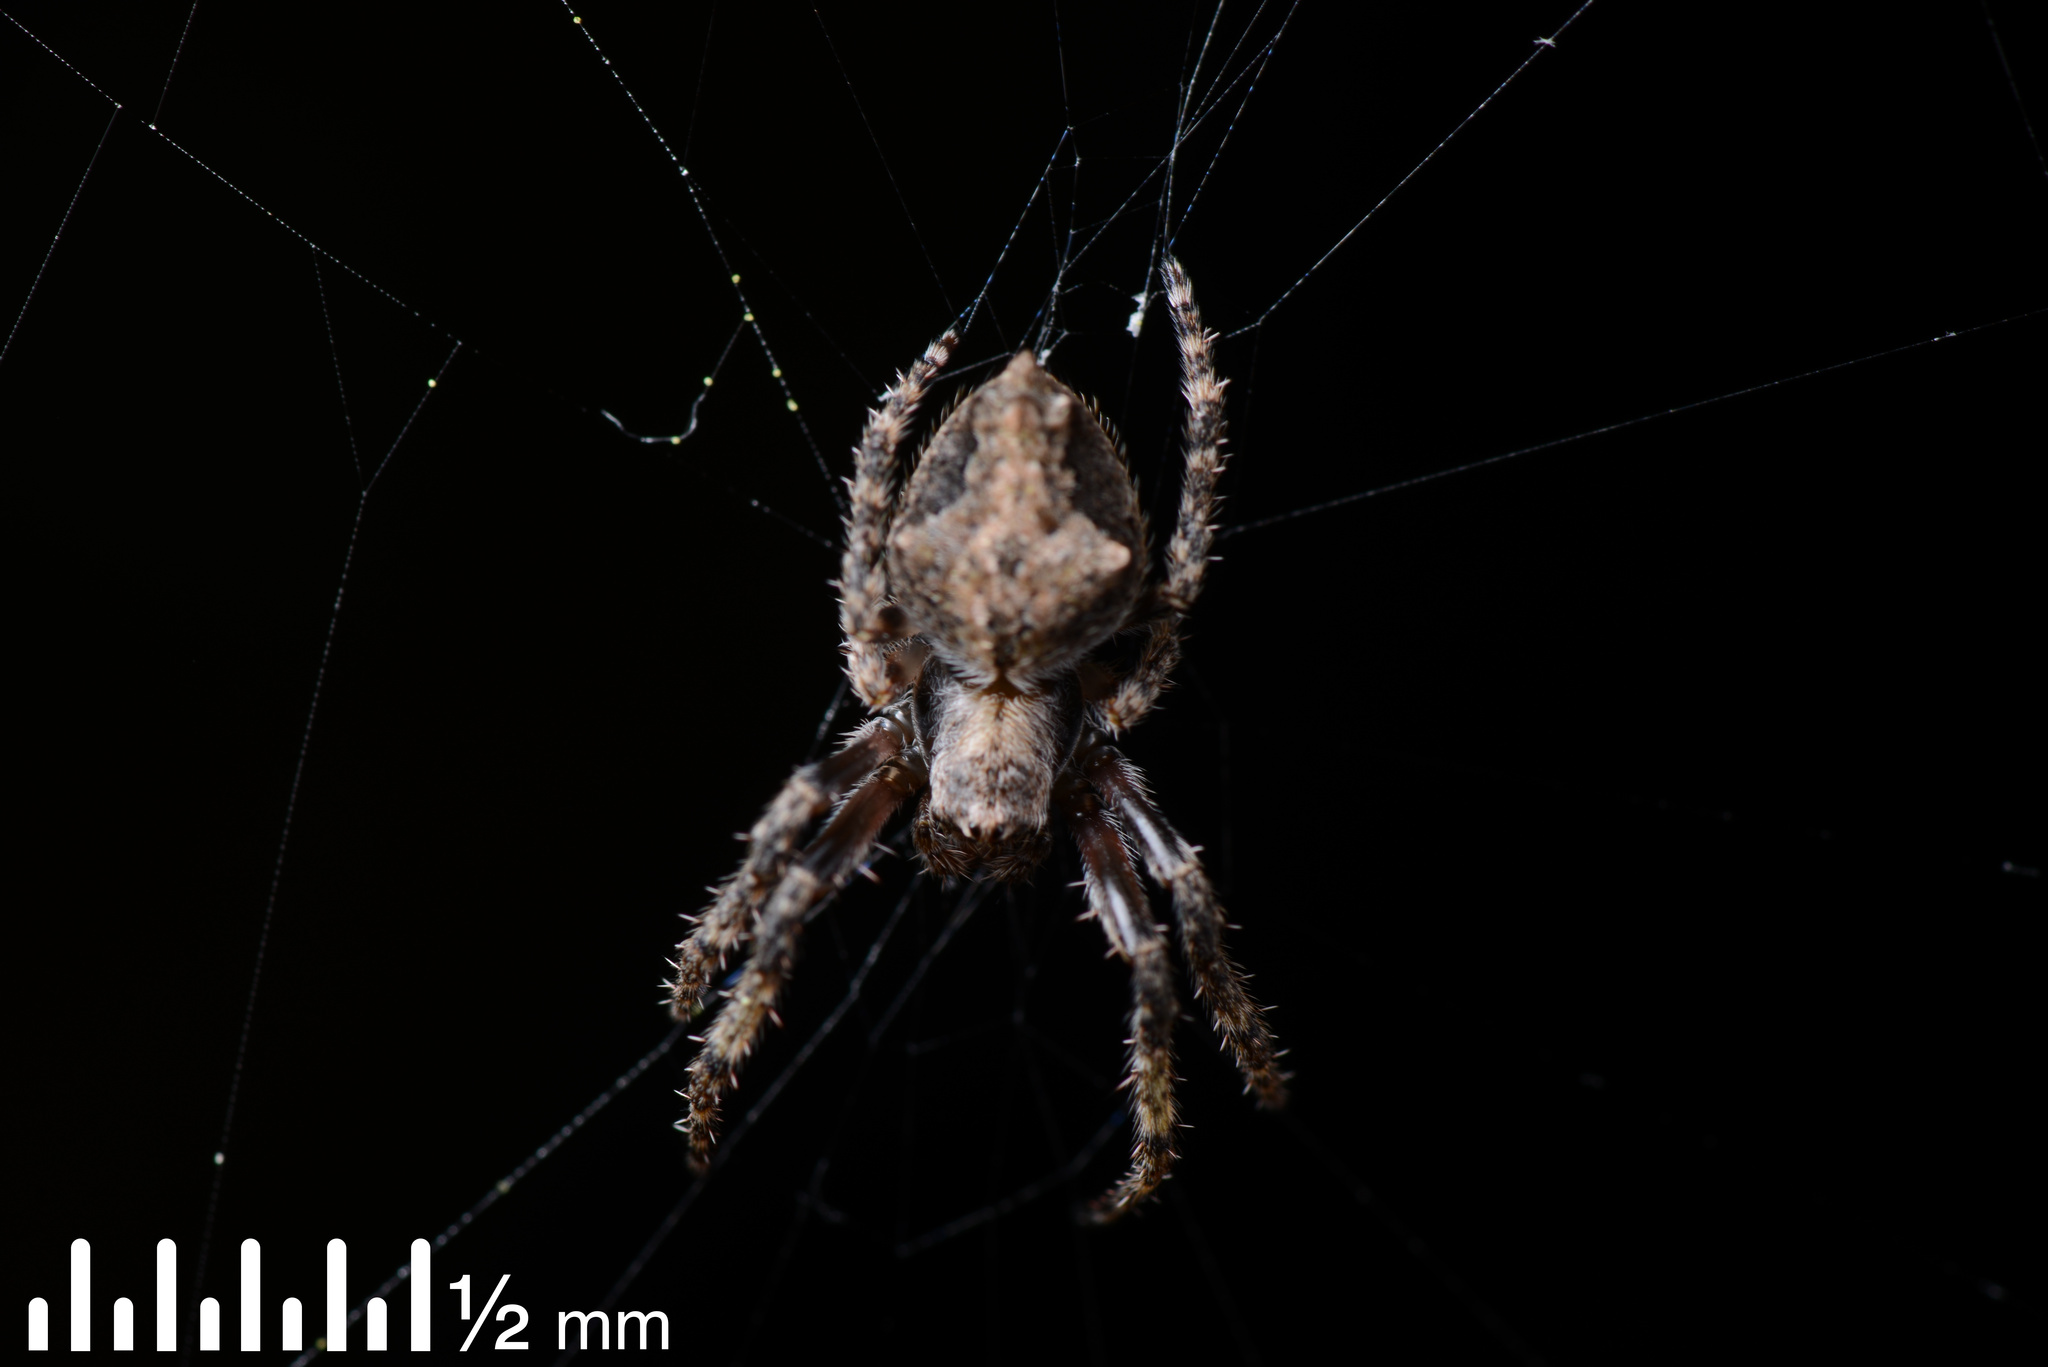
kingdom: Animalia
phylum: Arthropoda
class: Arachnida
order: Araneae
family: Araneidae
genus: Eriophora
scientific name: Eriophora pustulosa
